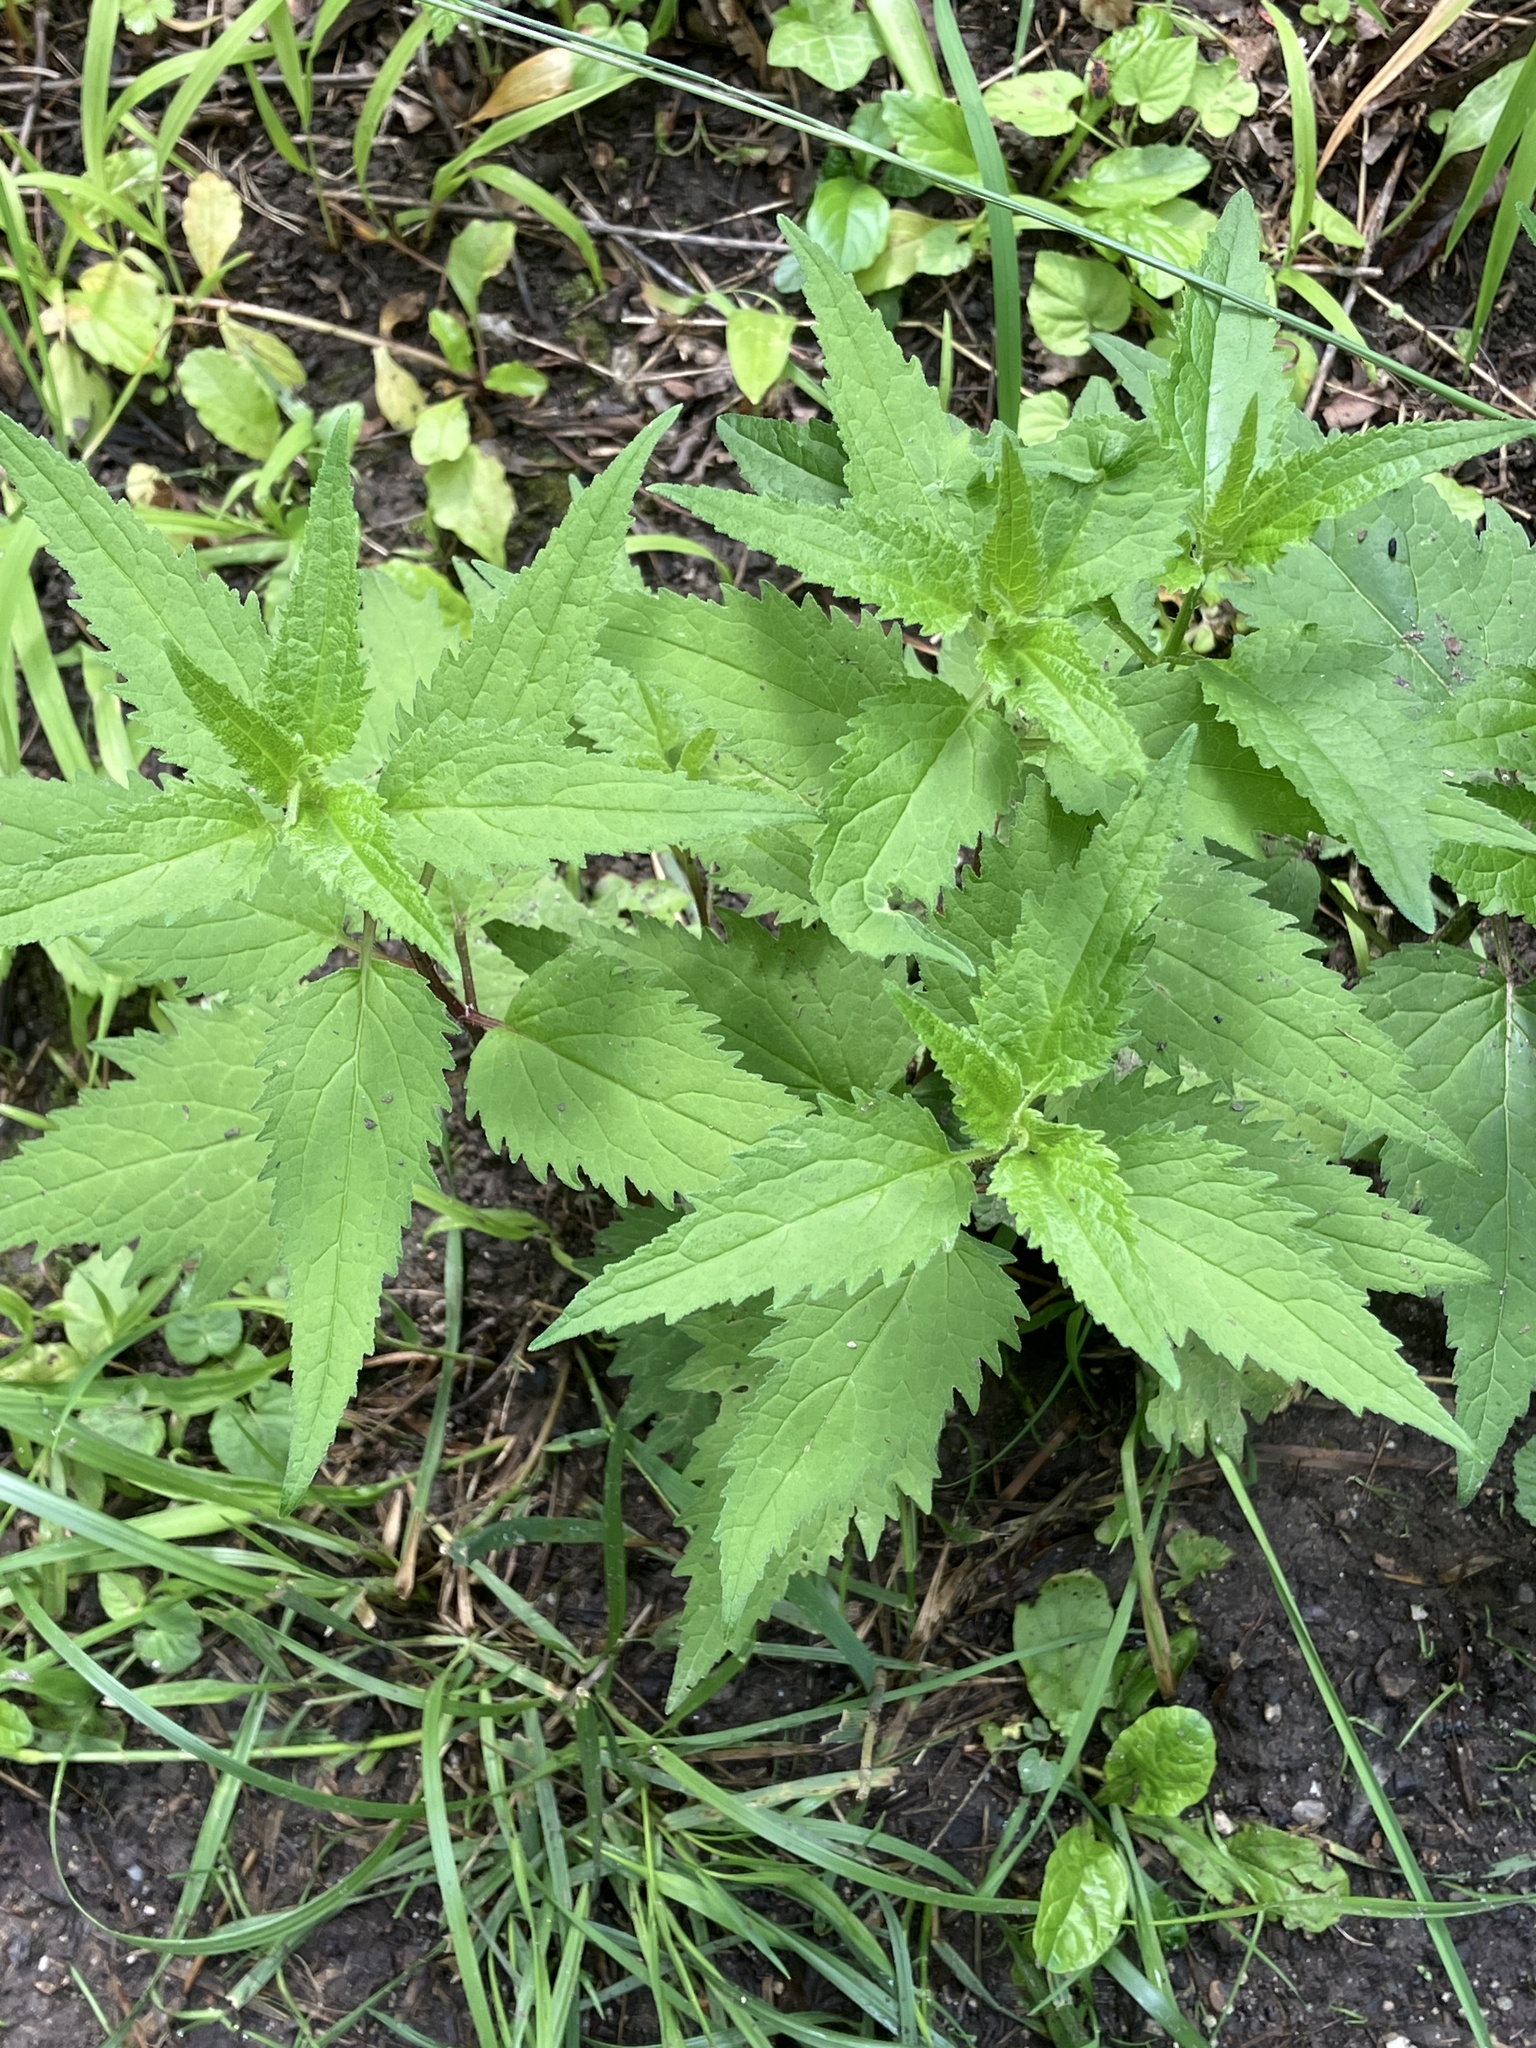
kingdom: Plantae
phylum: Tracheophyta
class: Magnoliopsida
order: Asterales
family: Campanulaceae
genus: Campanula
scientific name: Campanula trachelium
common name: Nettle-leaved bellflower
